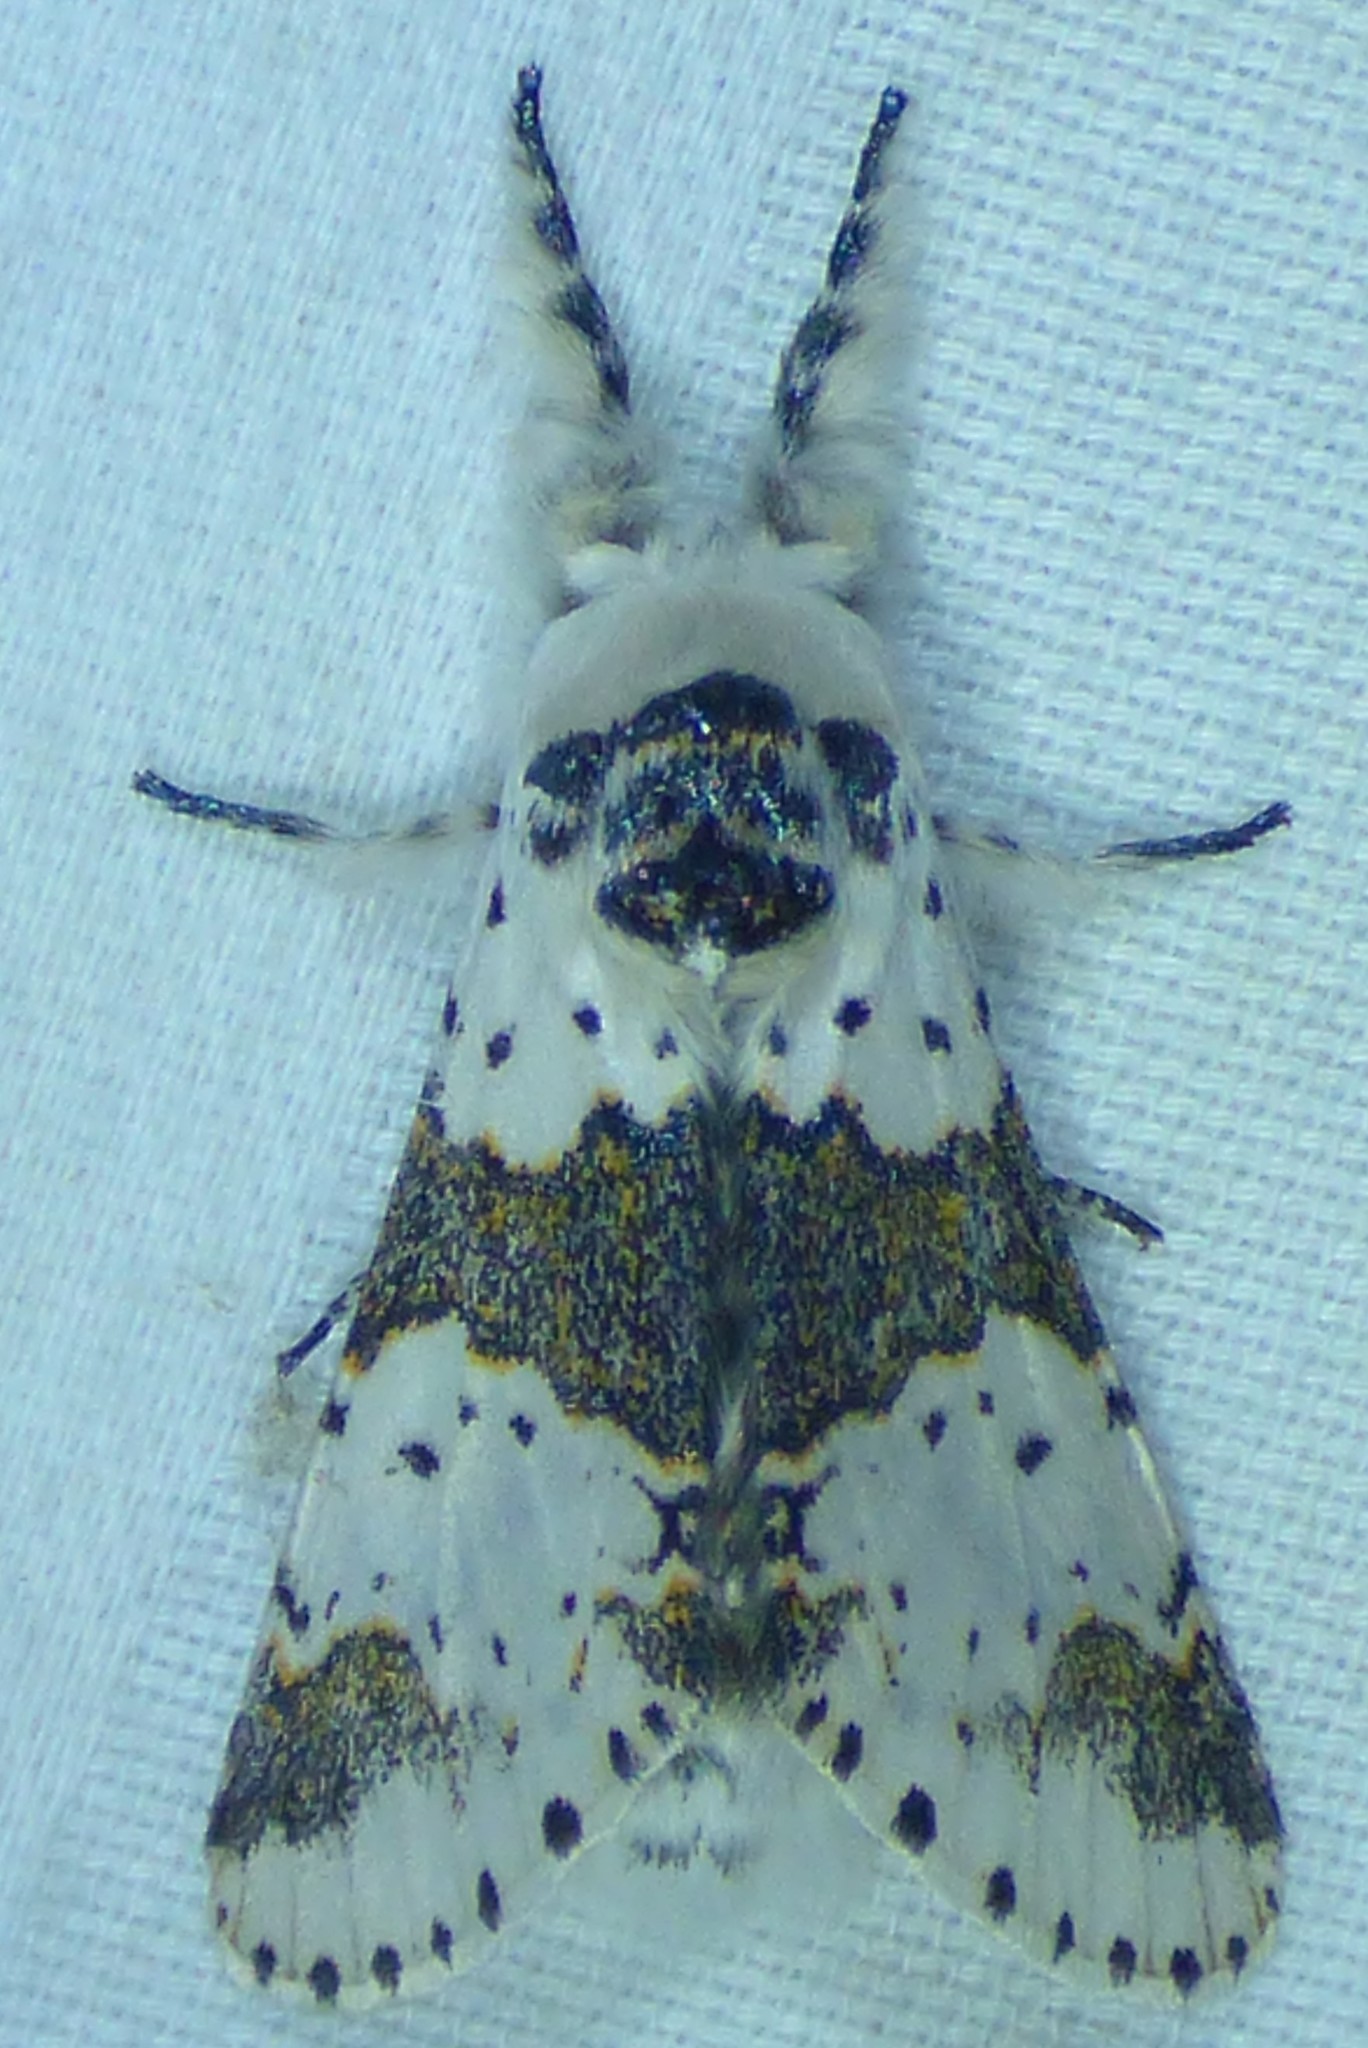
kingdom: Animalia
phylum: Arthropoda
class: Insecta
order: Lepidoptera
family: Notodontidae
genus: Furcula
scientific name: Furcula borealis
